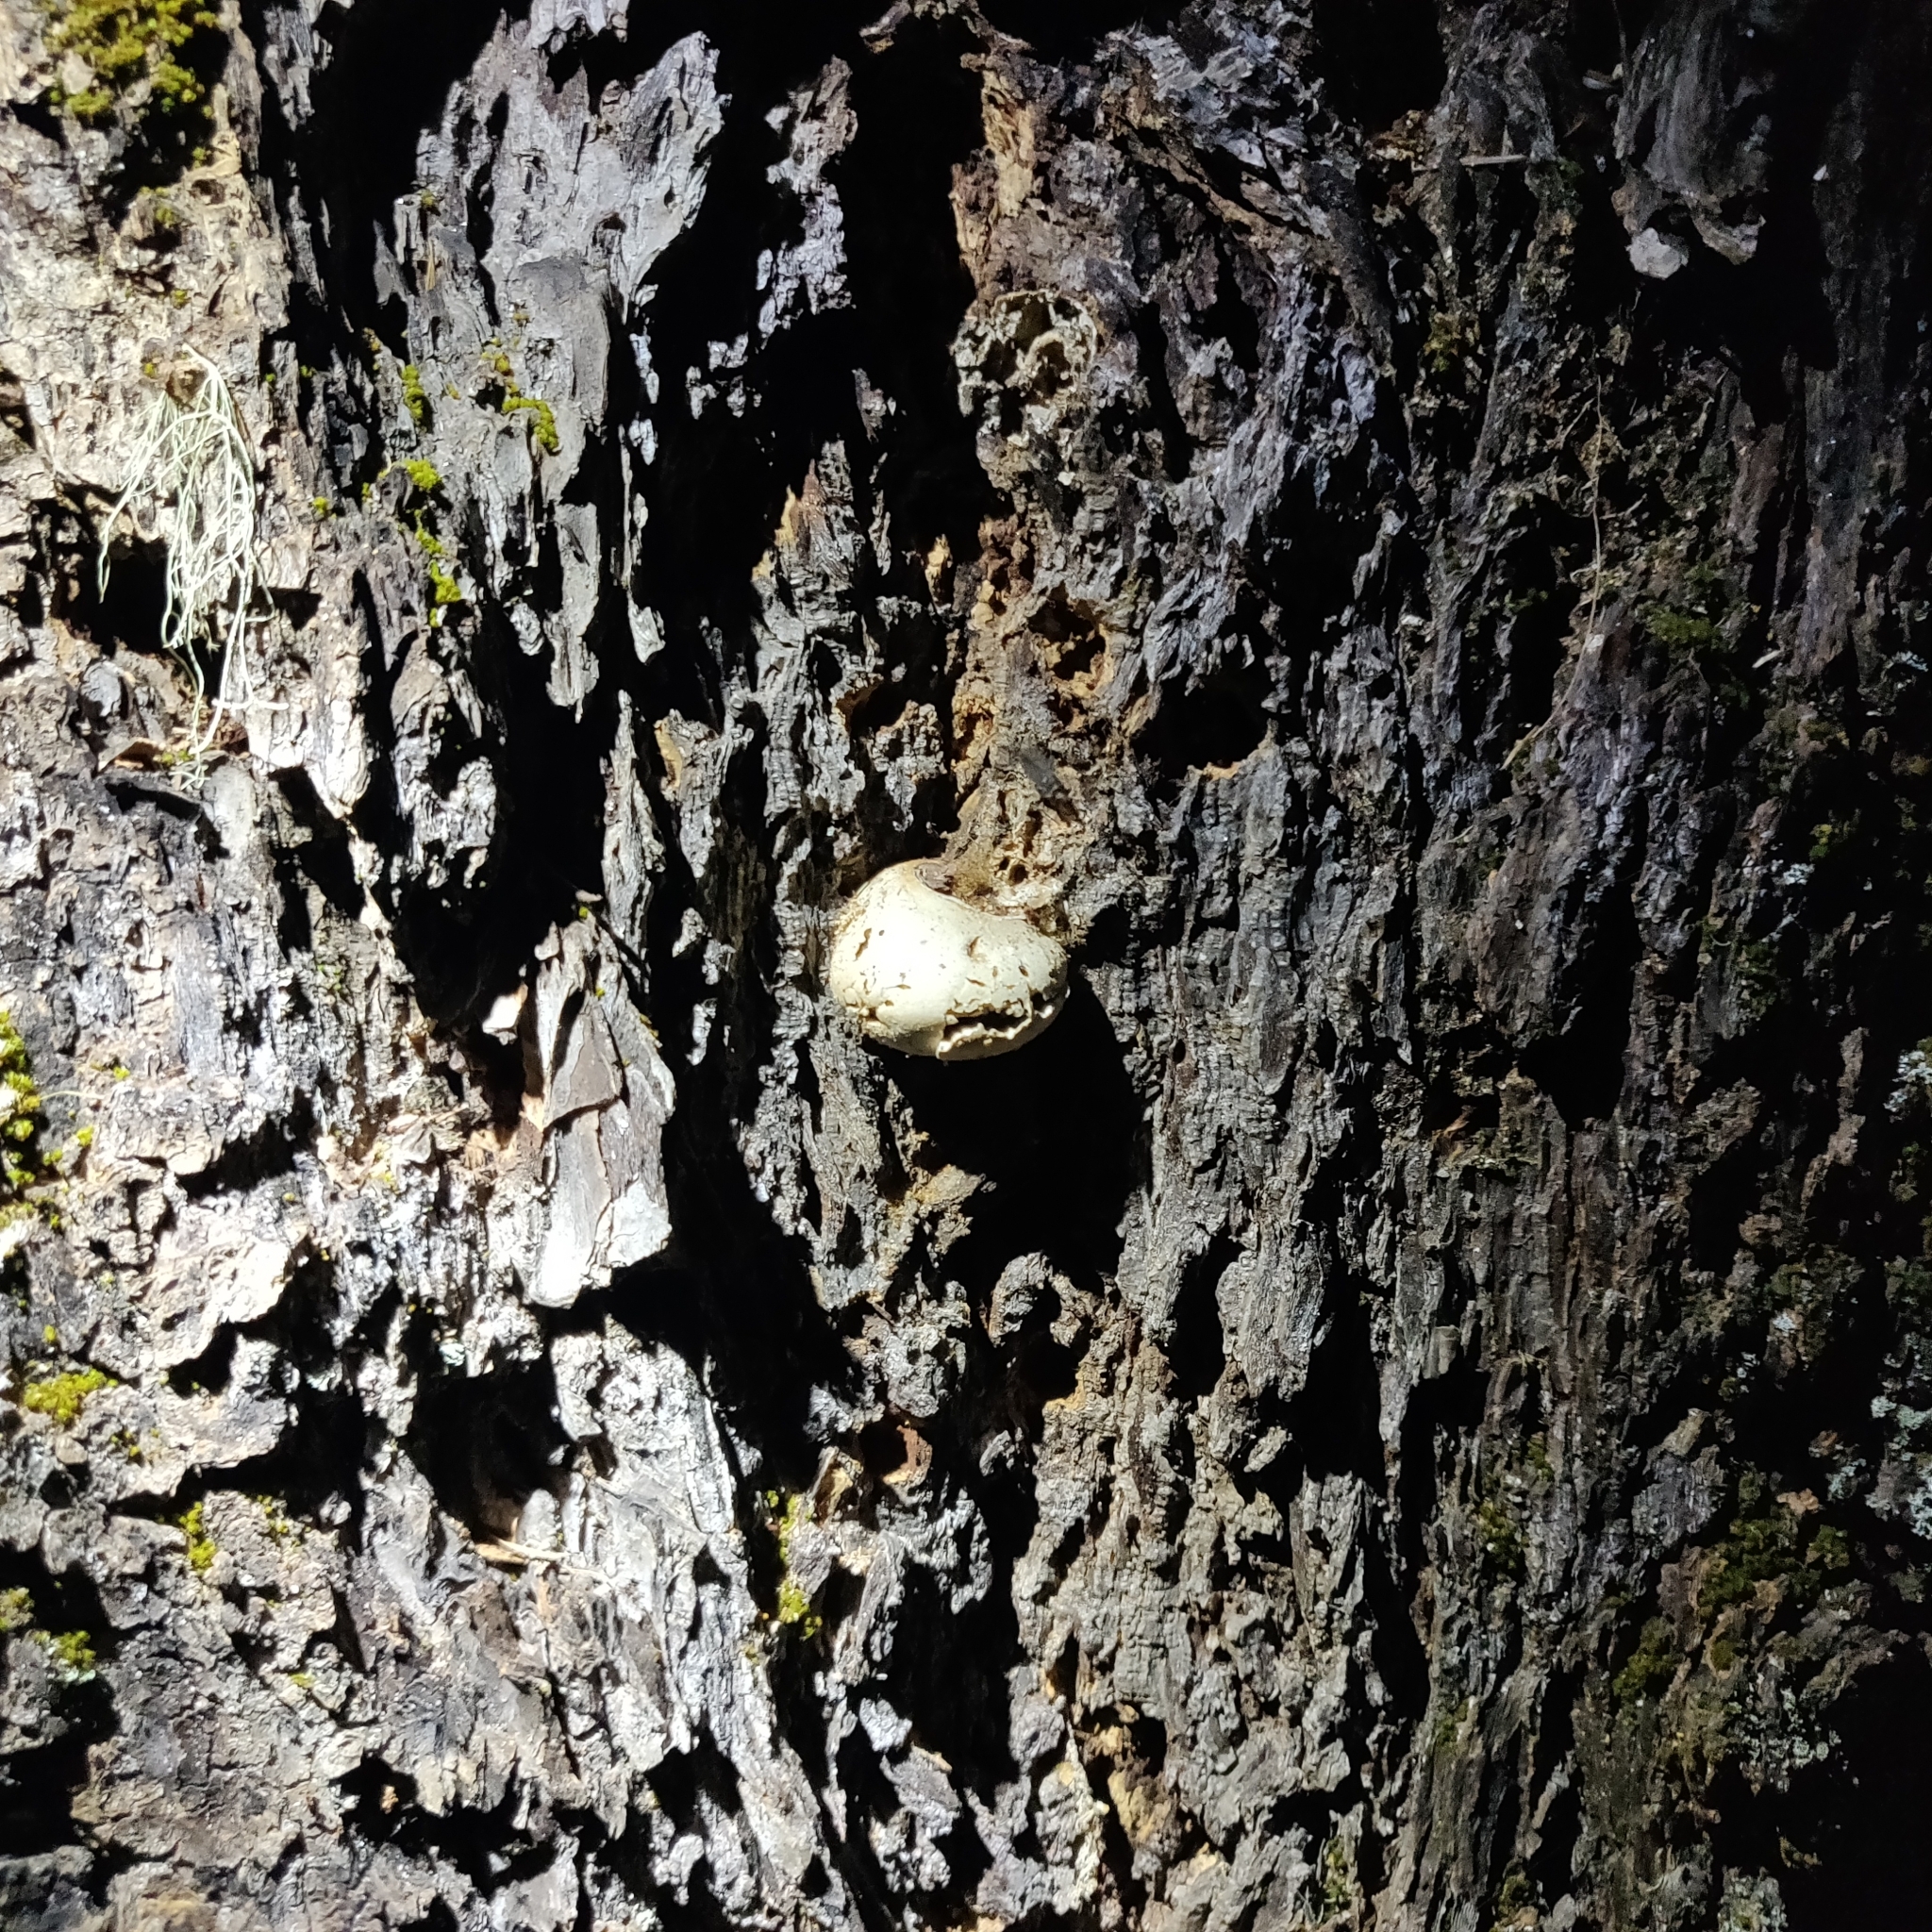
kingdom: Fungi
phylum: Basidiomycota
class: Agaricomycetes
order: Polyporales
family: Polyporaceae
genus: Cryptoporus
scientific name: Cryptoporus volvatus
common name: Veiled polypore
